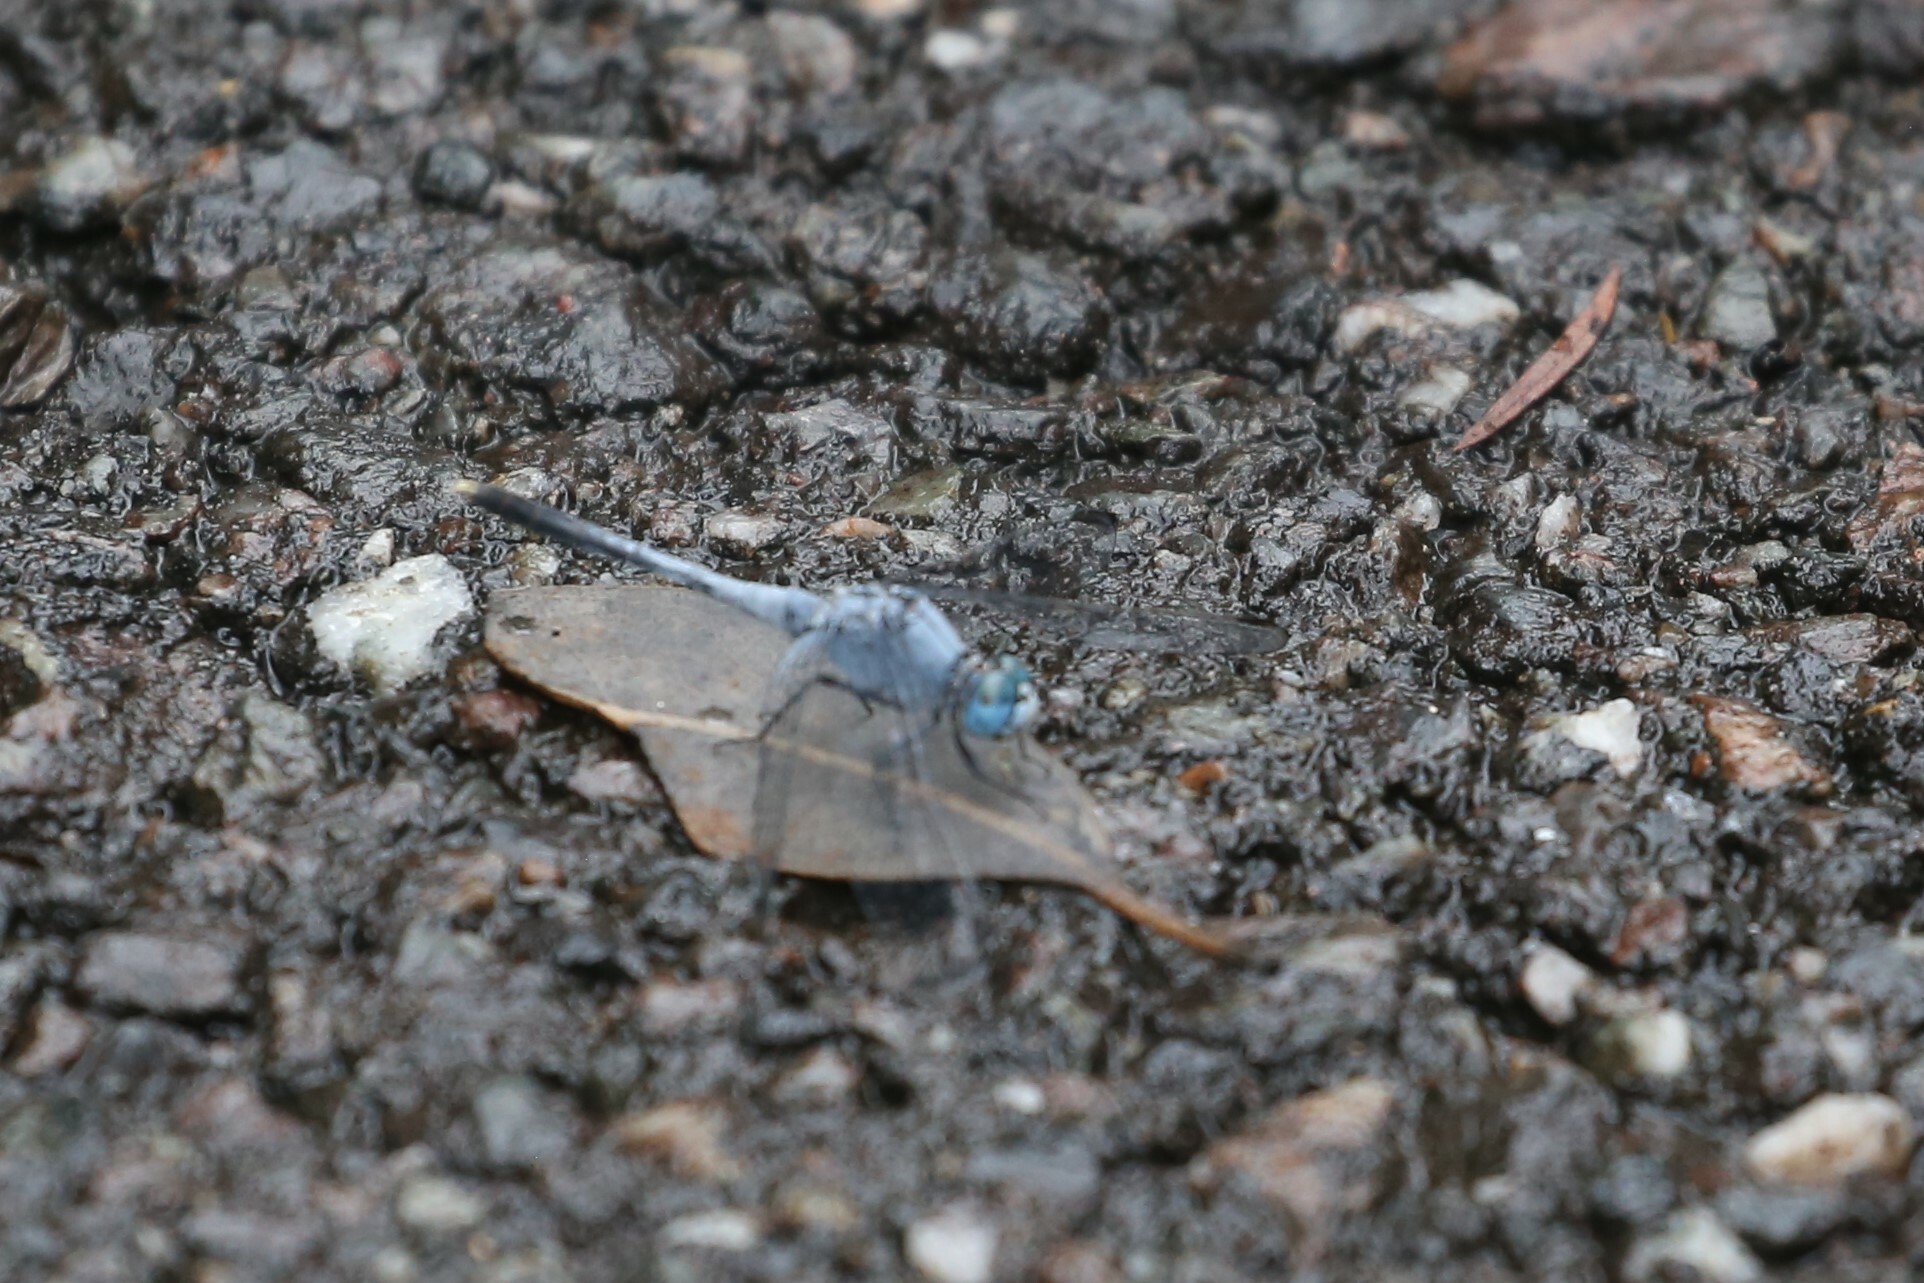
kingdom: Animalia
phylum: Arthropoda
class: Insecta
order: Odonata
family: Libellulidae
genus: Diplacodes
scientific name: Diplacodes trivialis
